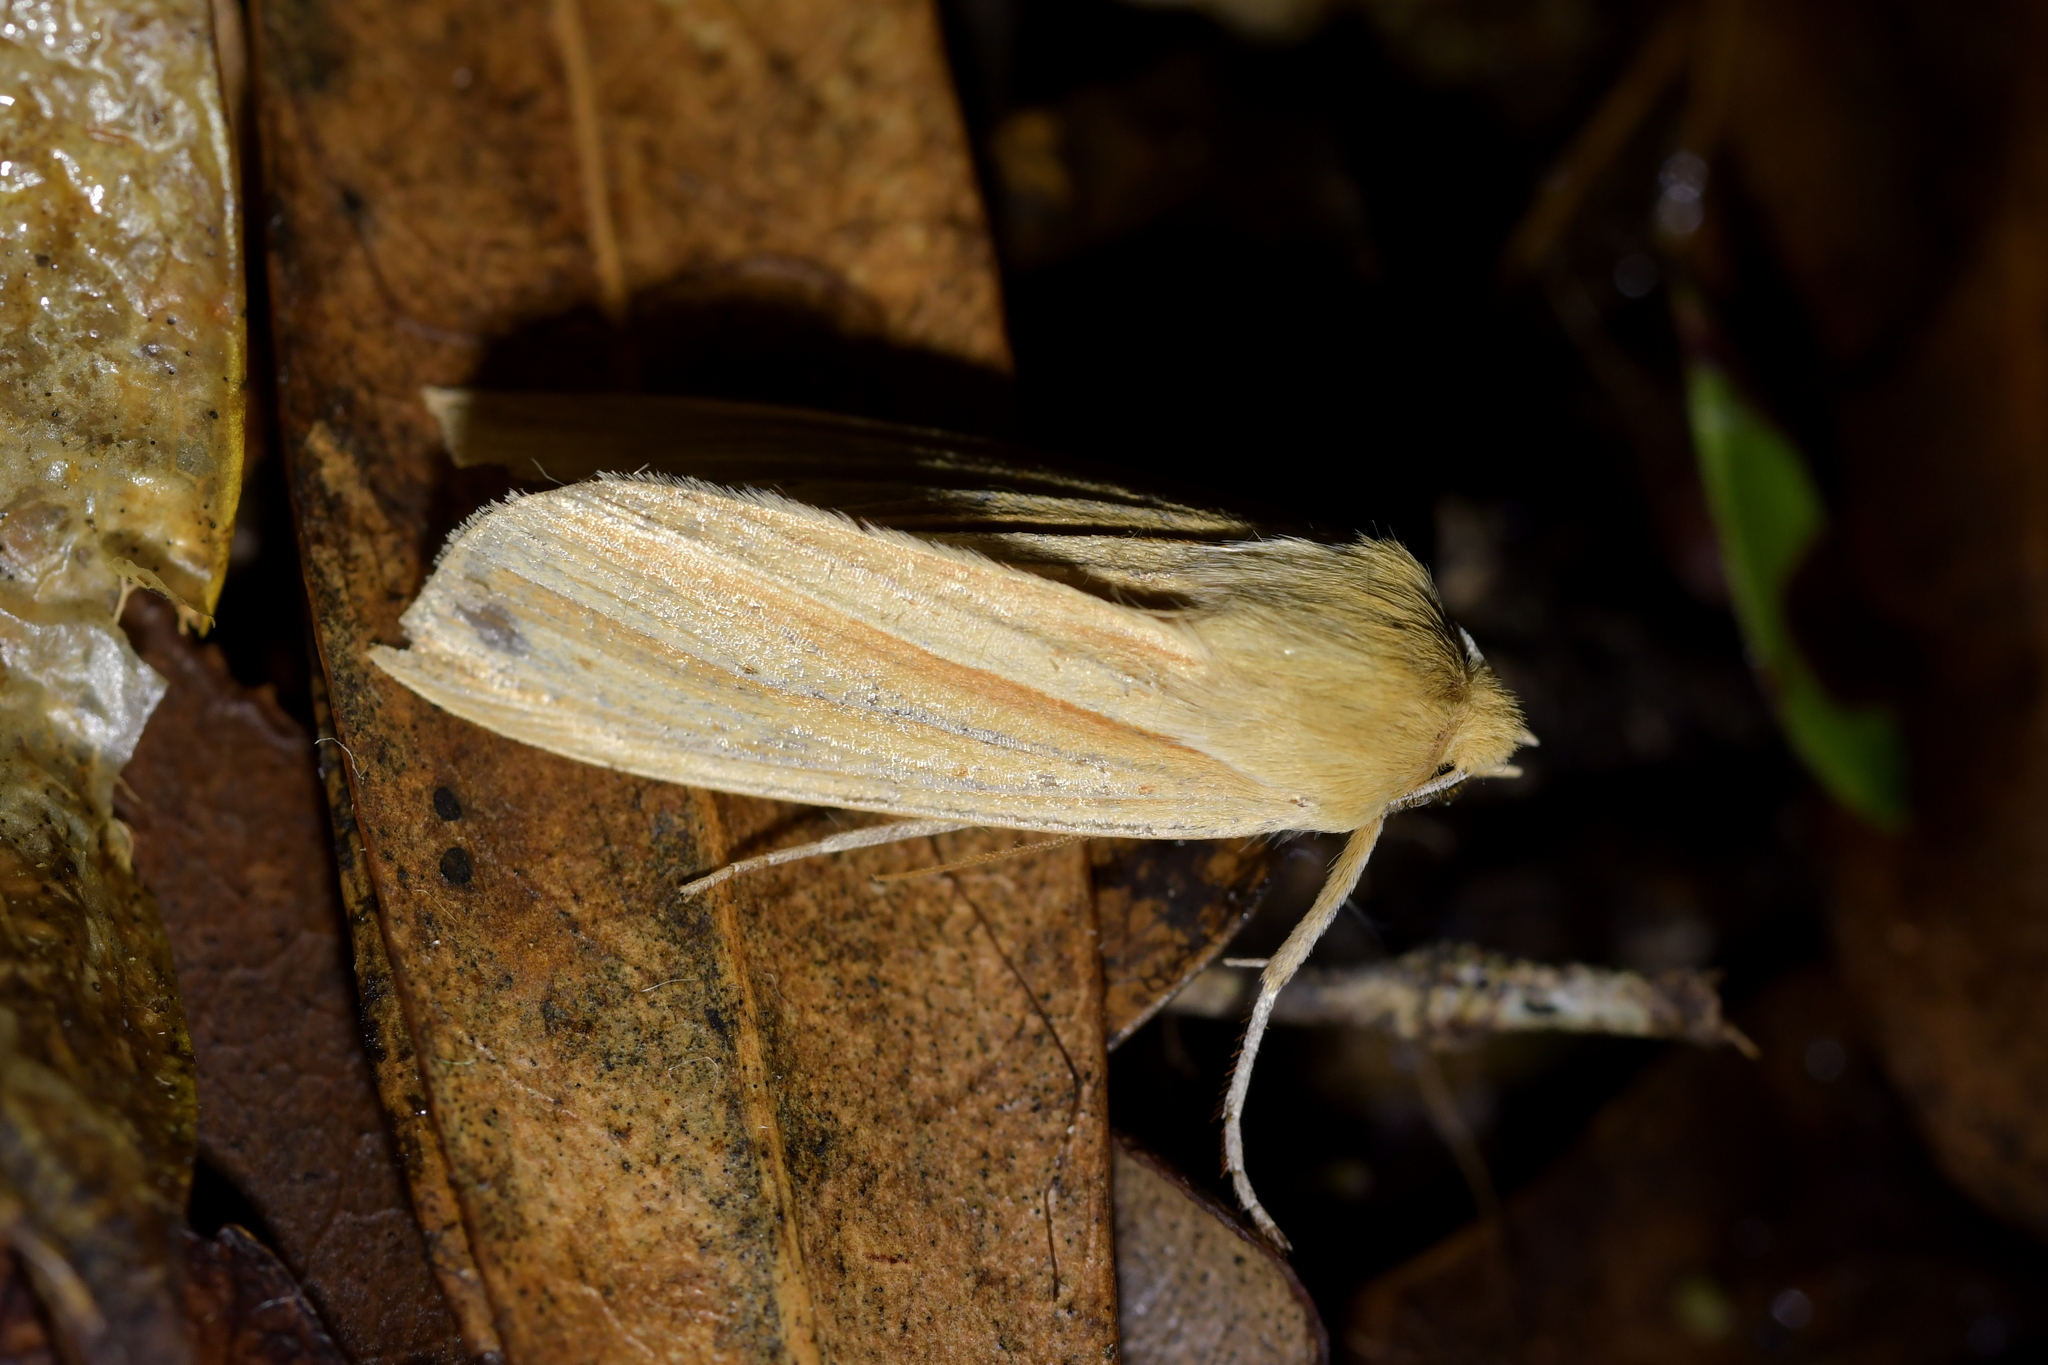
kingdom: Animalia
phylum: Arthropoda
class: Insecta
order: Lepidoptera
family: Noctuidae
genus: Ichneutica
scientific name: Ichneutica sulcana
